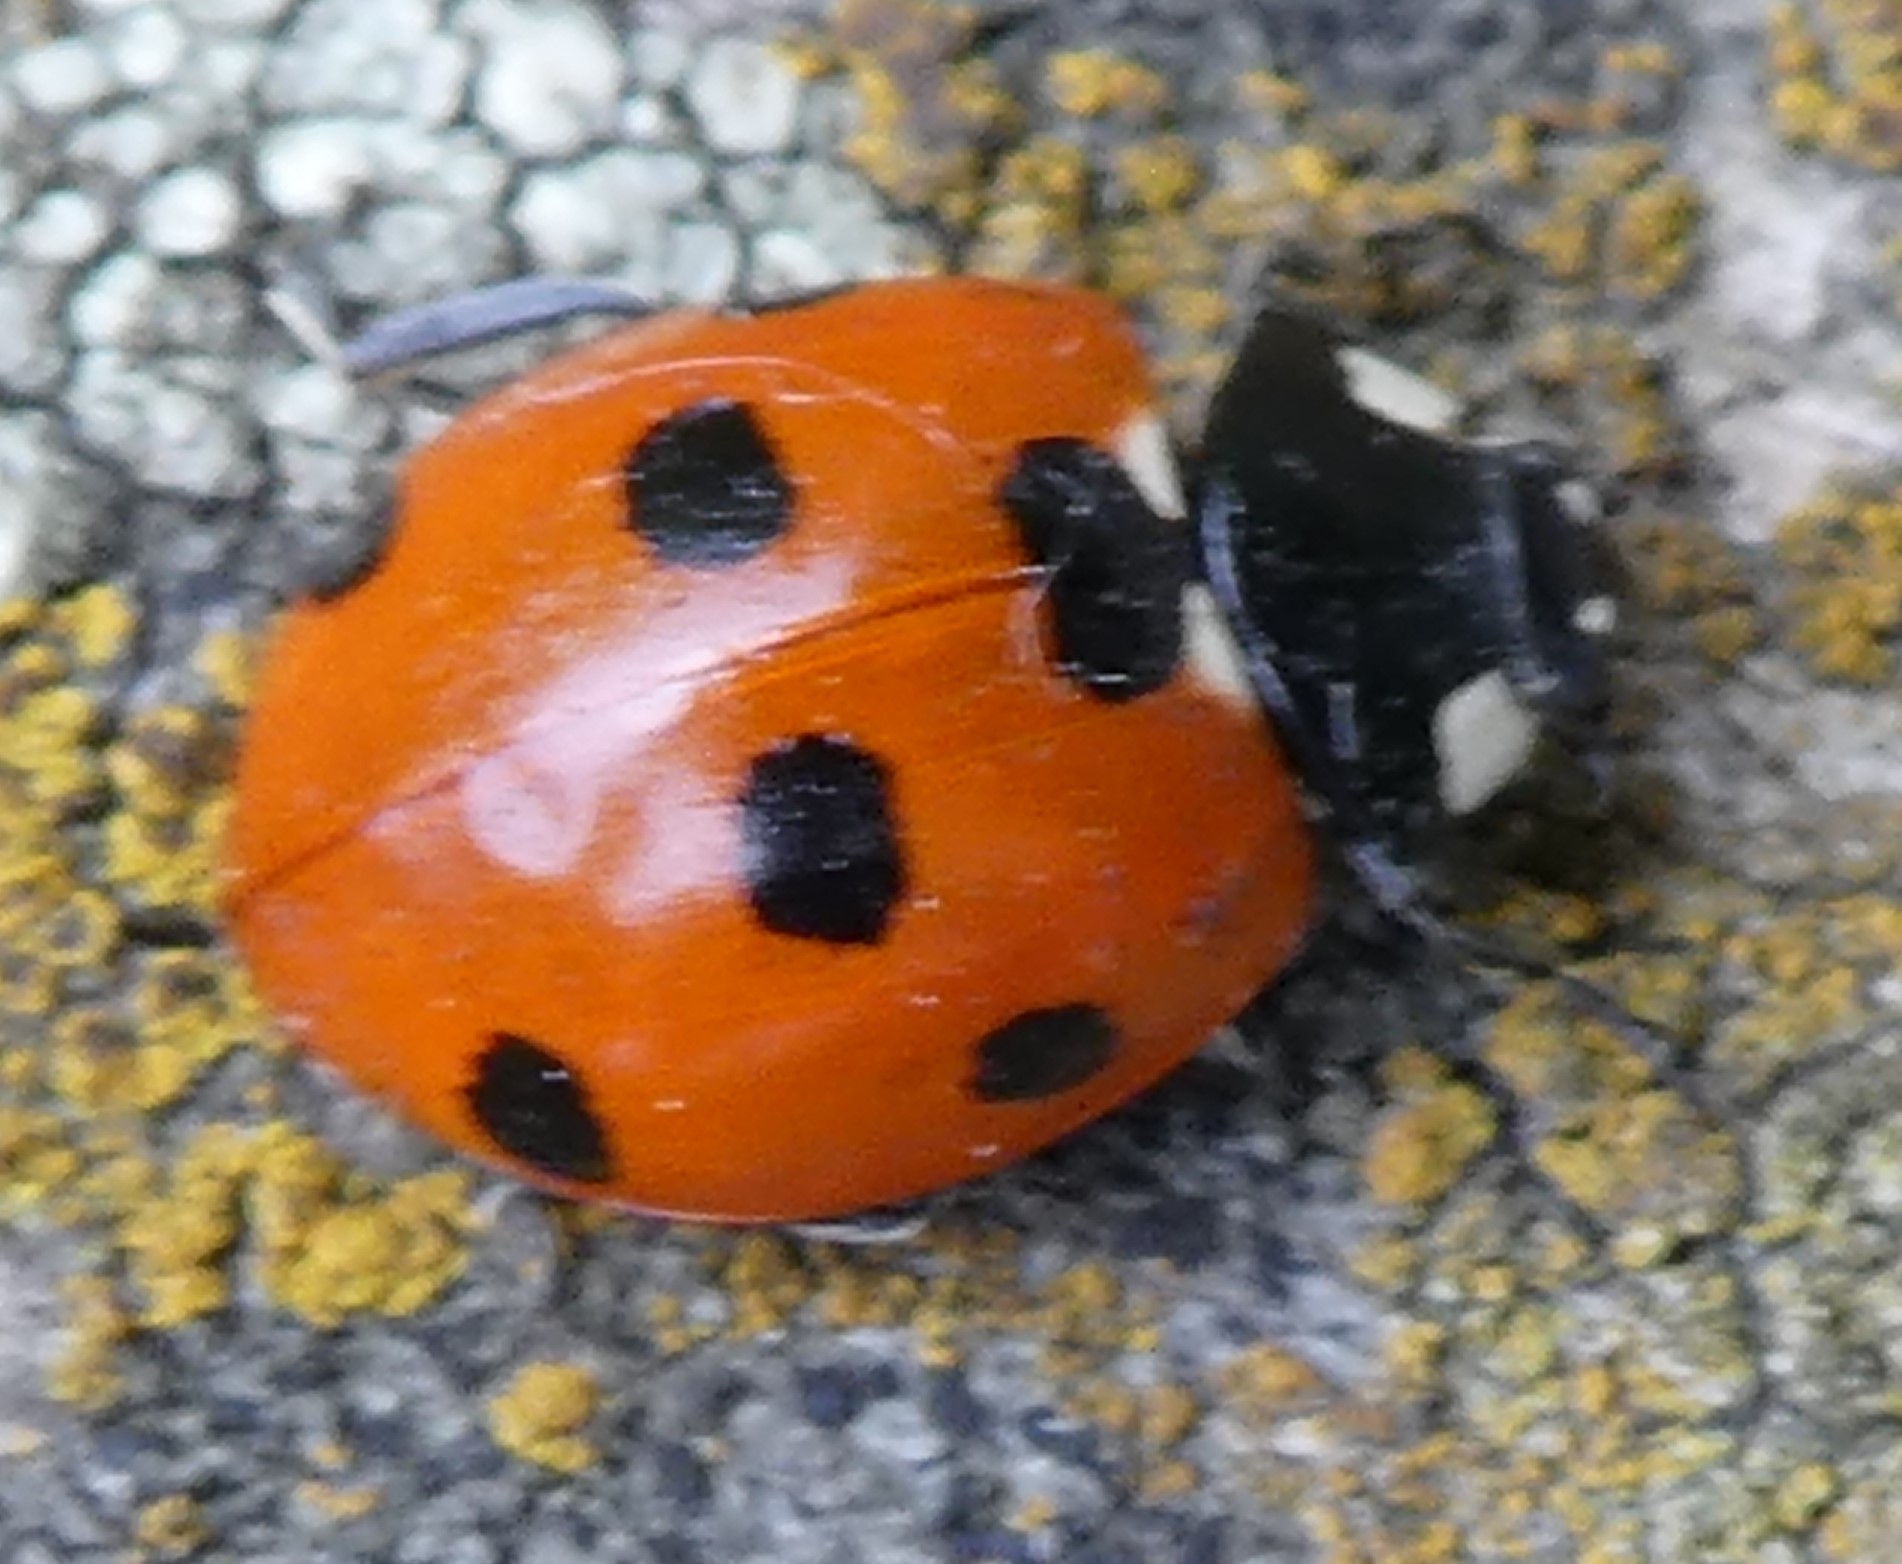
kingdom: Animalia
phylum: Arthropoda
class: Insecta
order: Coleoptera
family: Coccinellidae
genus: Coccinella
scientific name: Coccinella septempunctata
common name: Sevenspotted lady beetle
